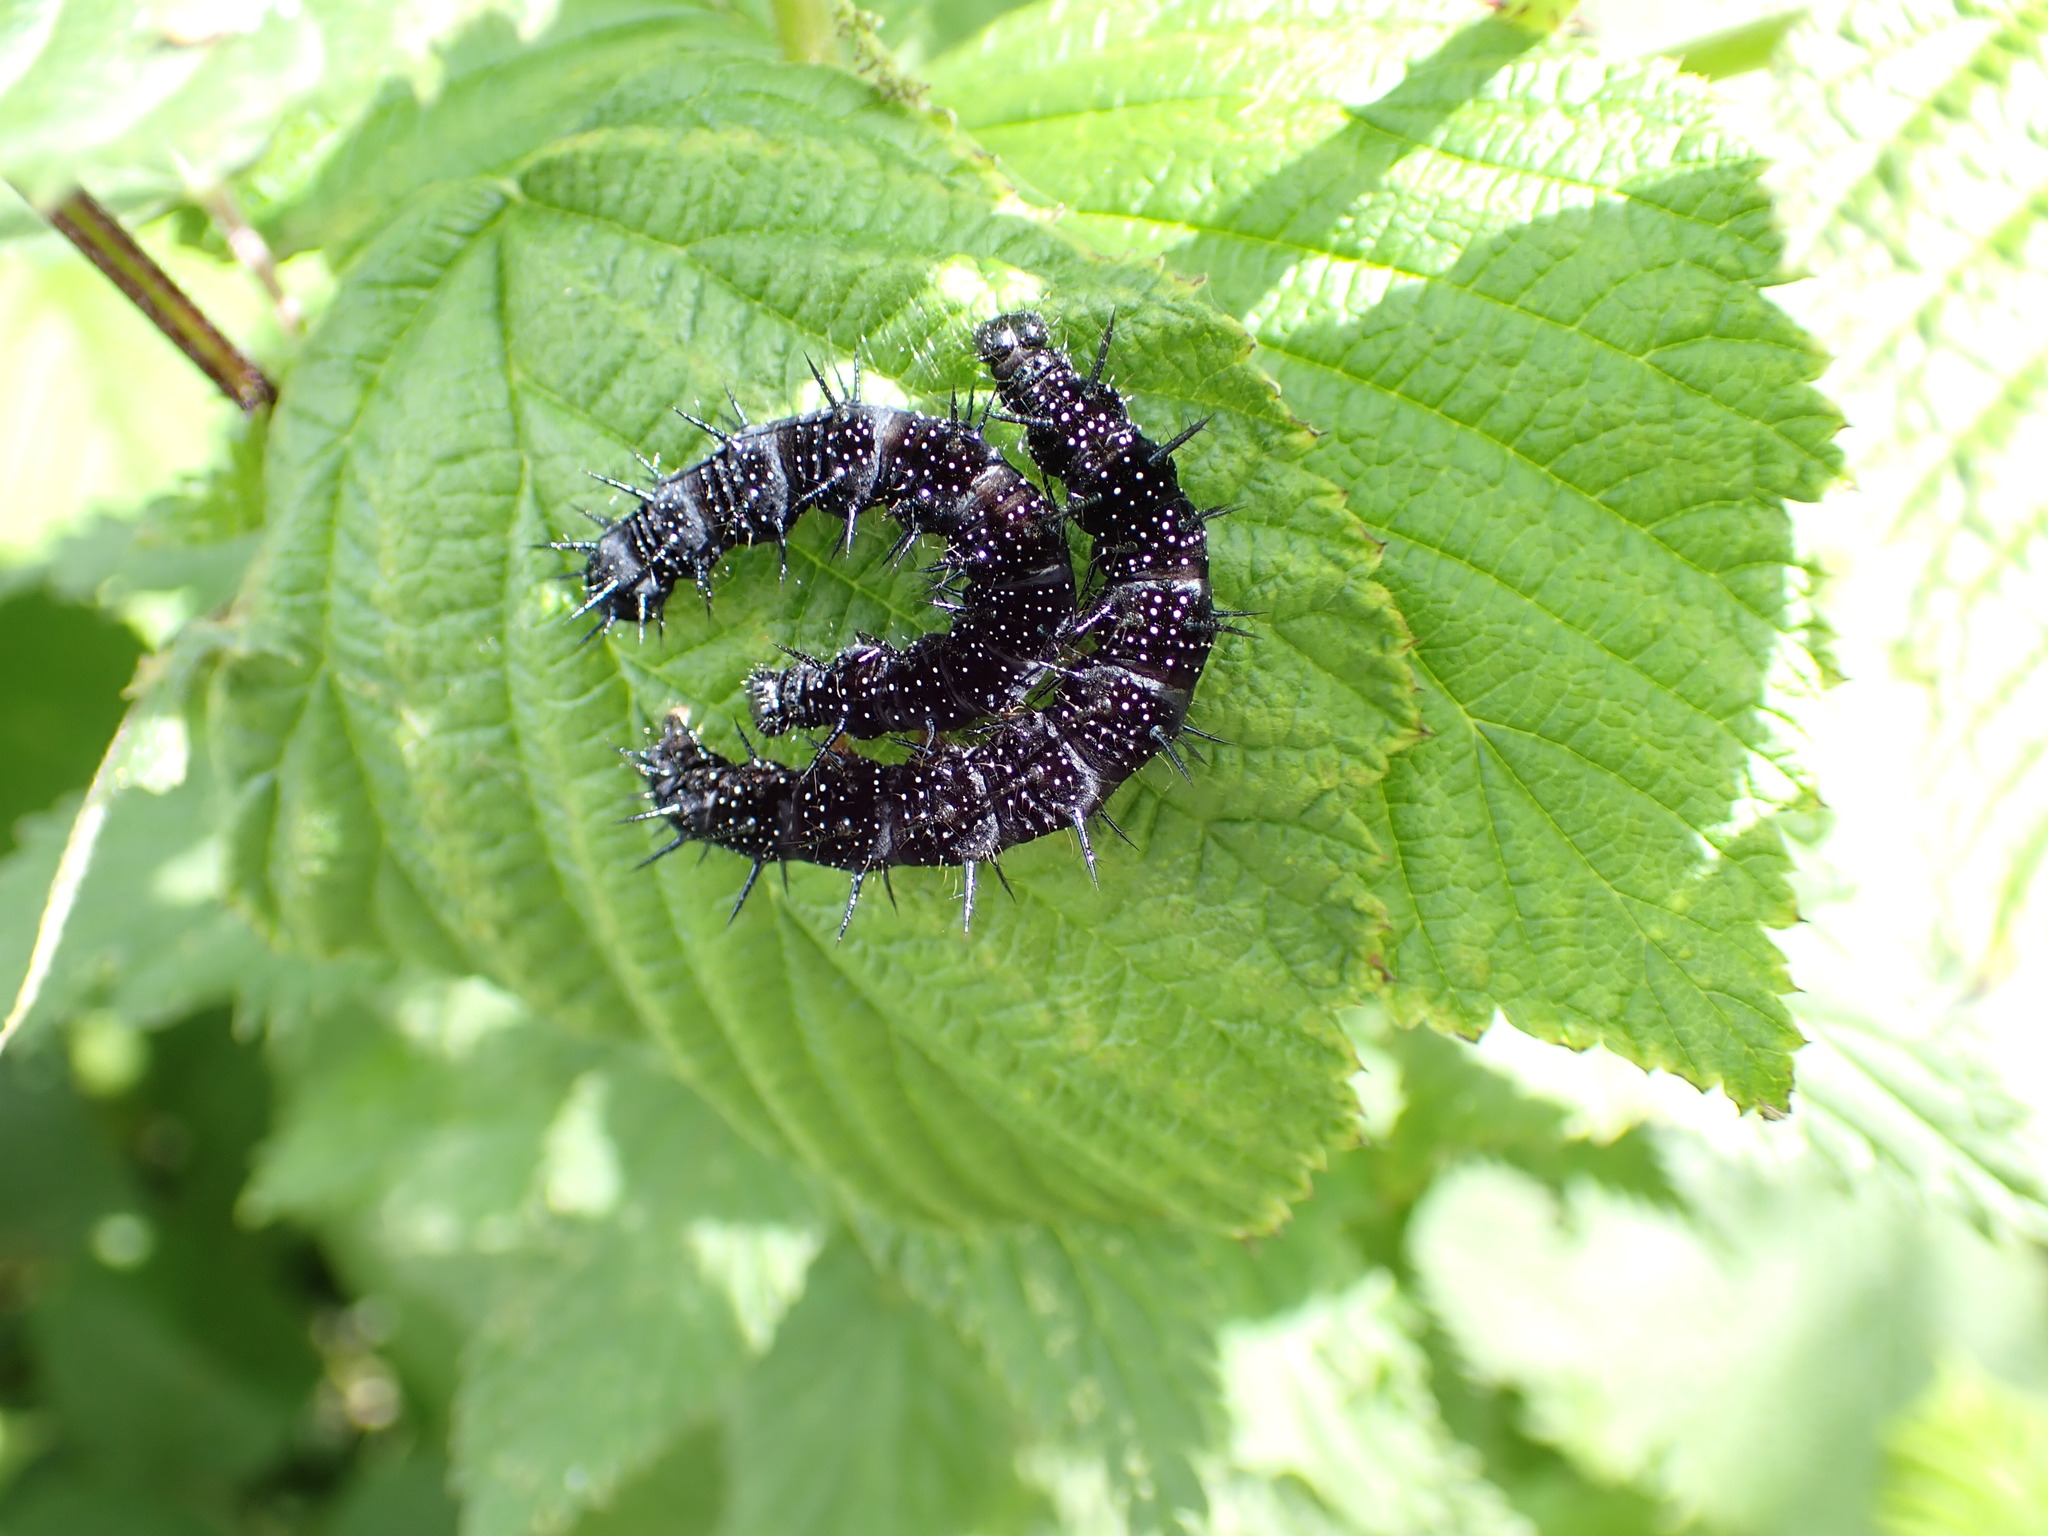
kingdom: Animalia
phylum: Arthropoda
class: Insecta
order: Lepidoptera
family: Nymphalidae
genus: Aglais
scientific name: Aglais io
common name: Peacock
